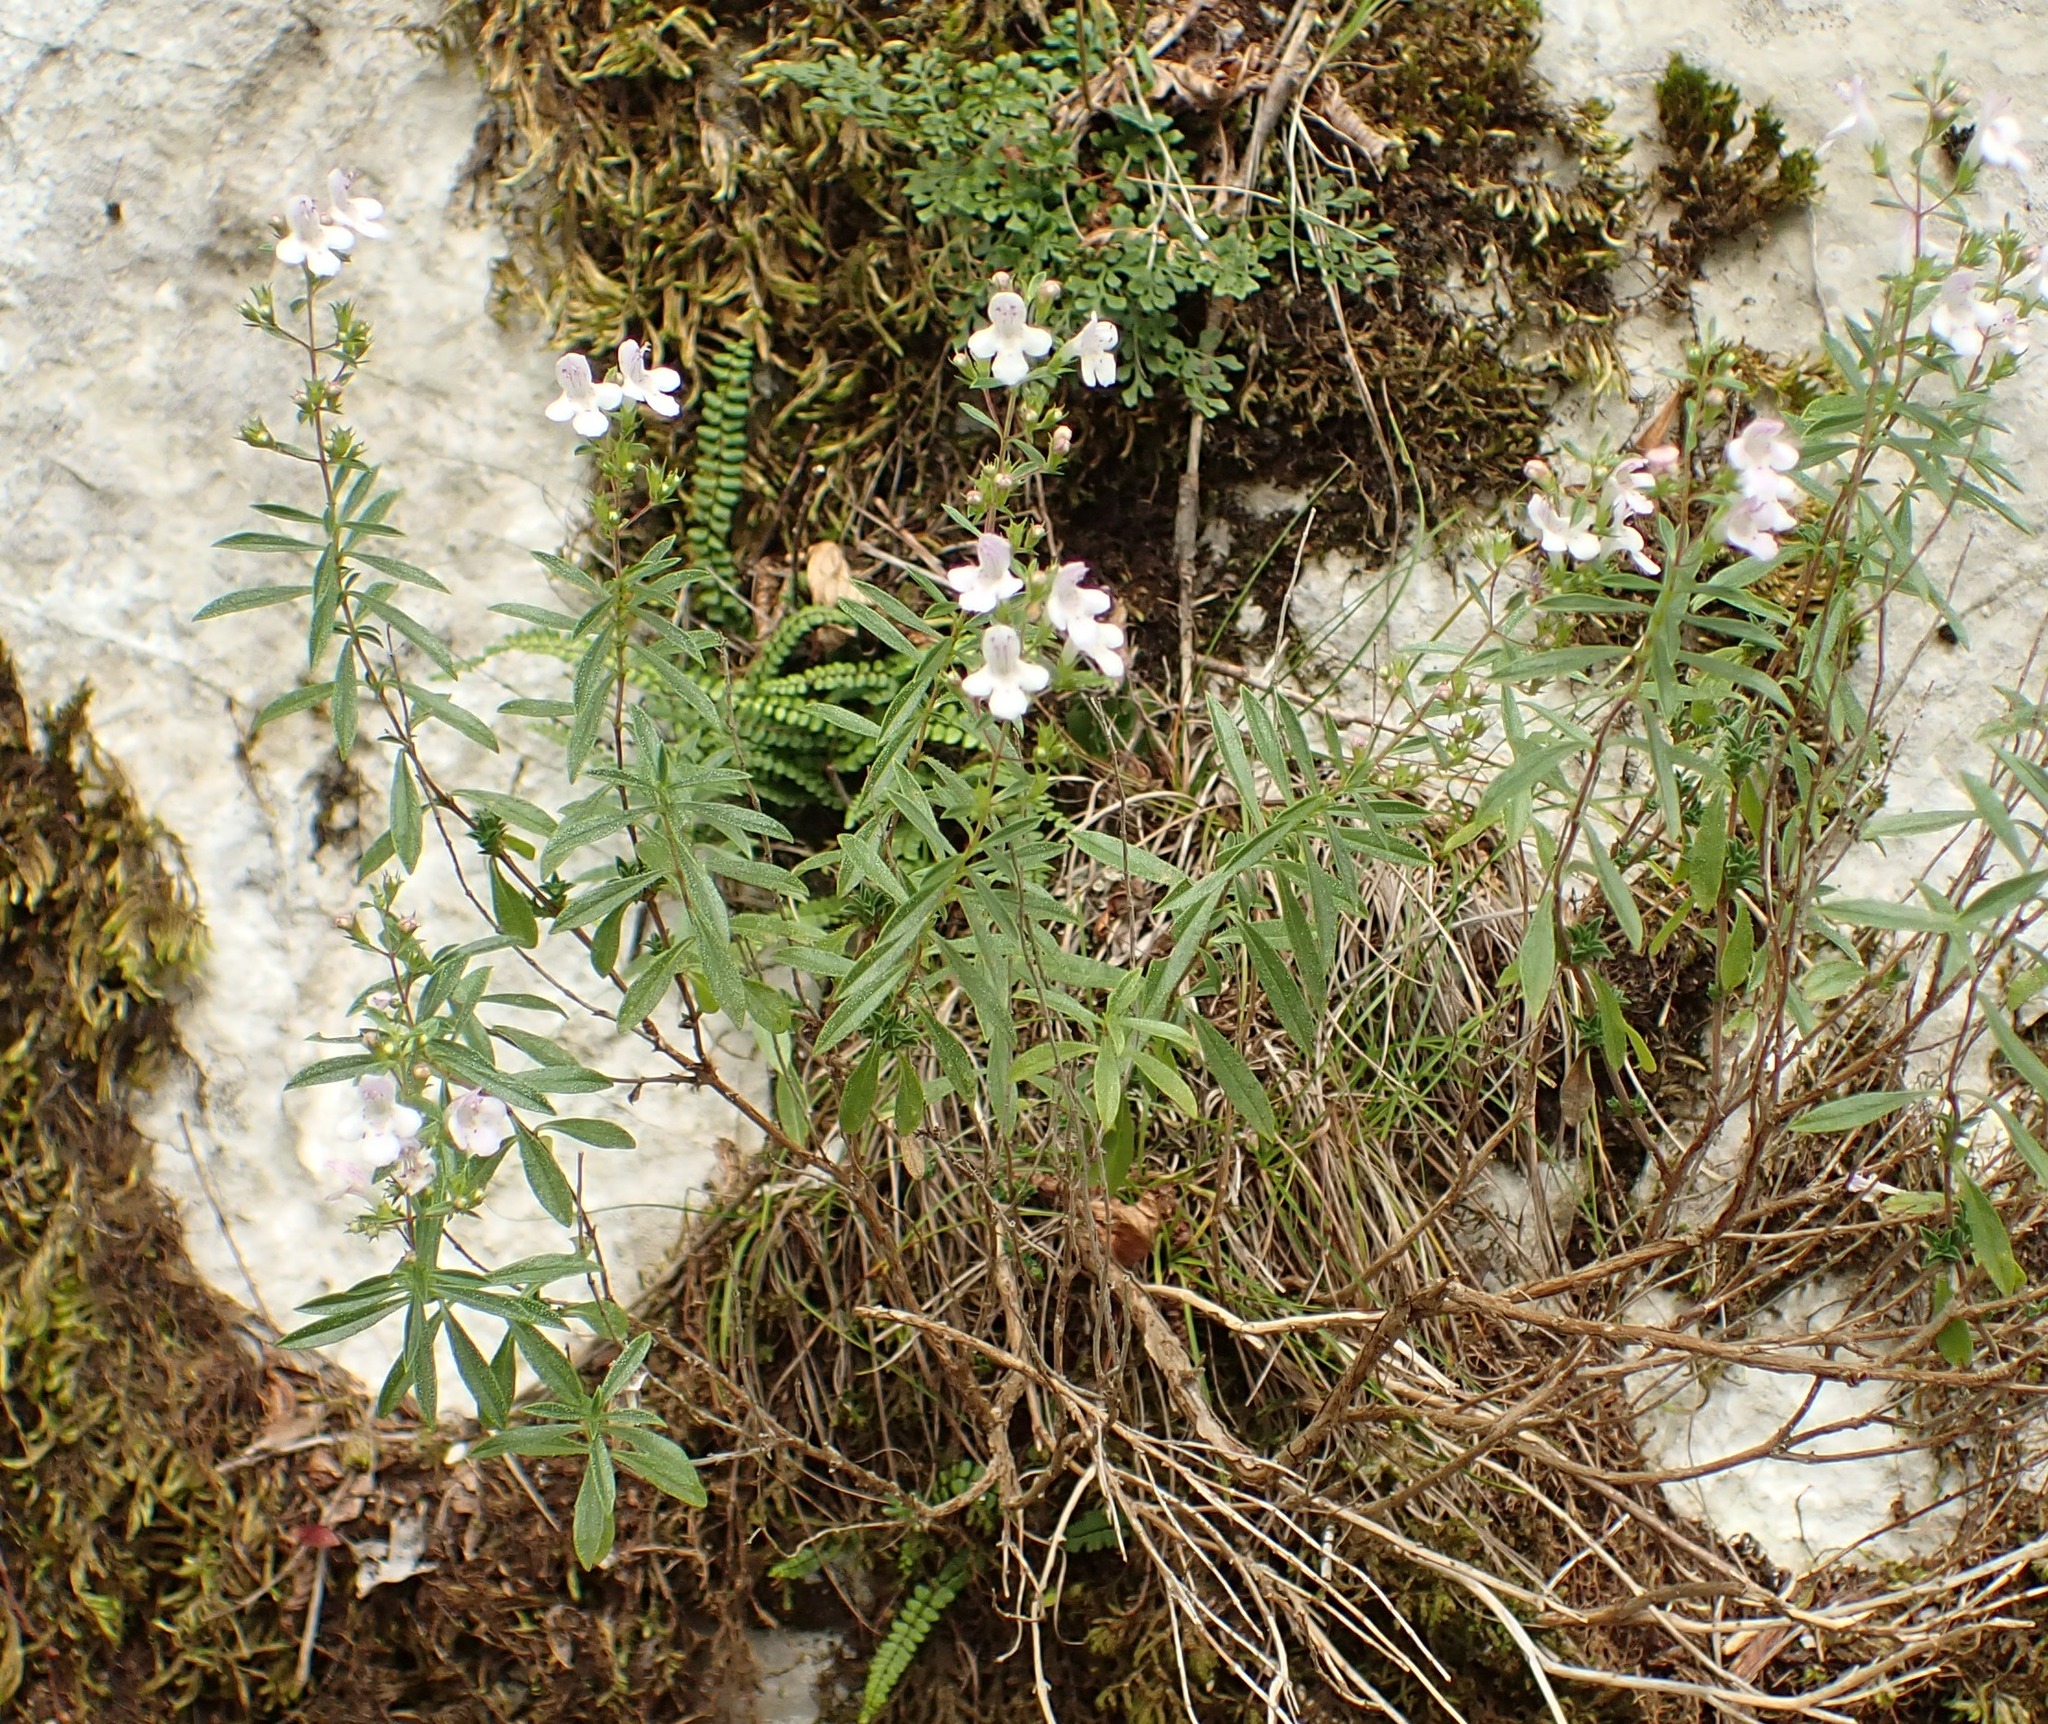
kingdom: Plantae
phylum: Tracheophyta
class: Magnoliopsida
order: Lamiales
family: Lamiaceae
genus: Satureja
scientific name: Satureja montana
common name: Winter savory
